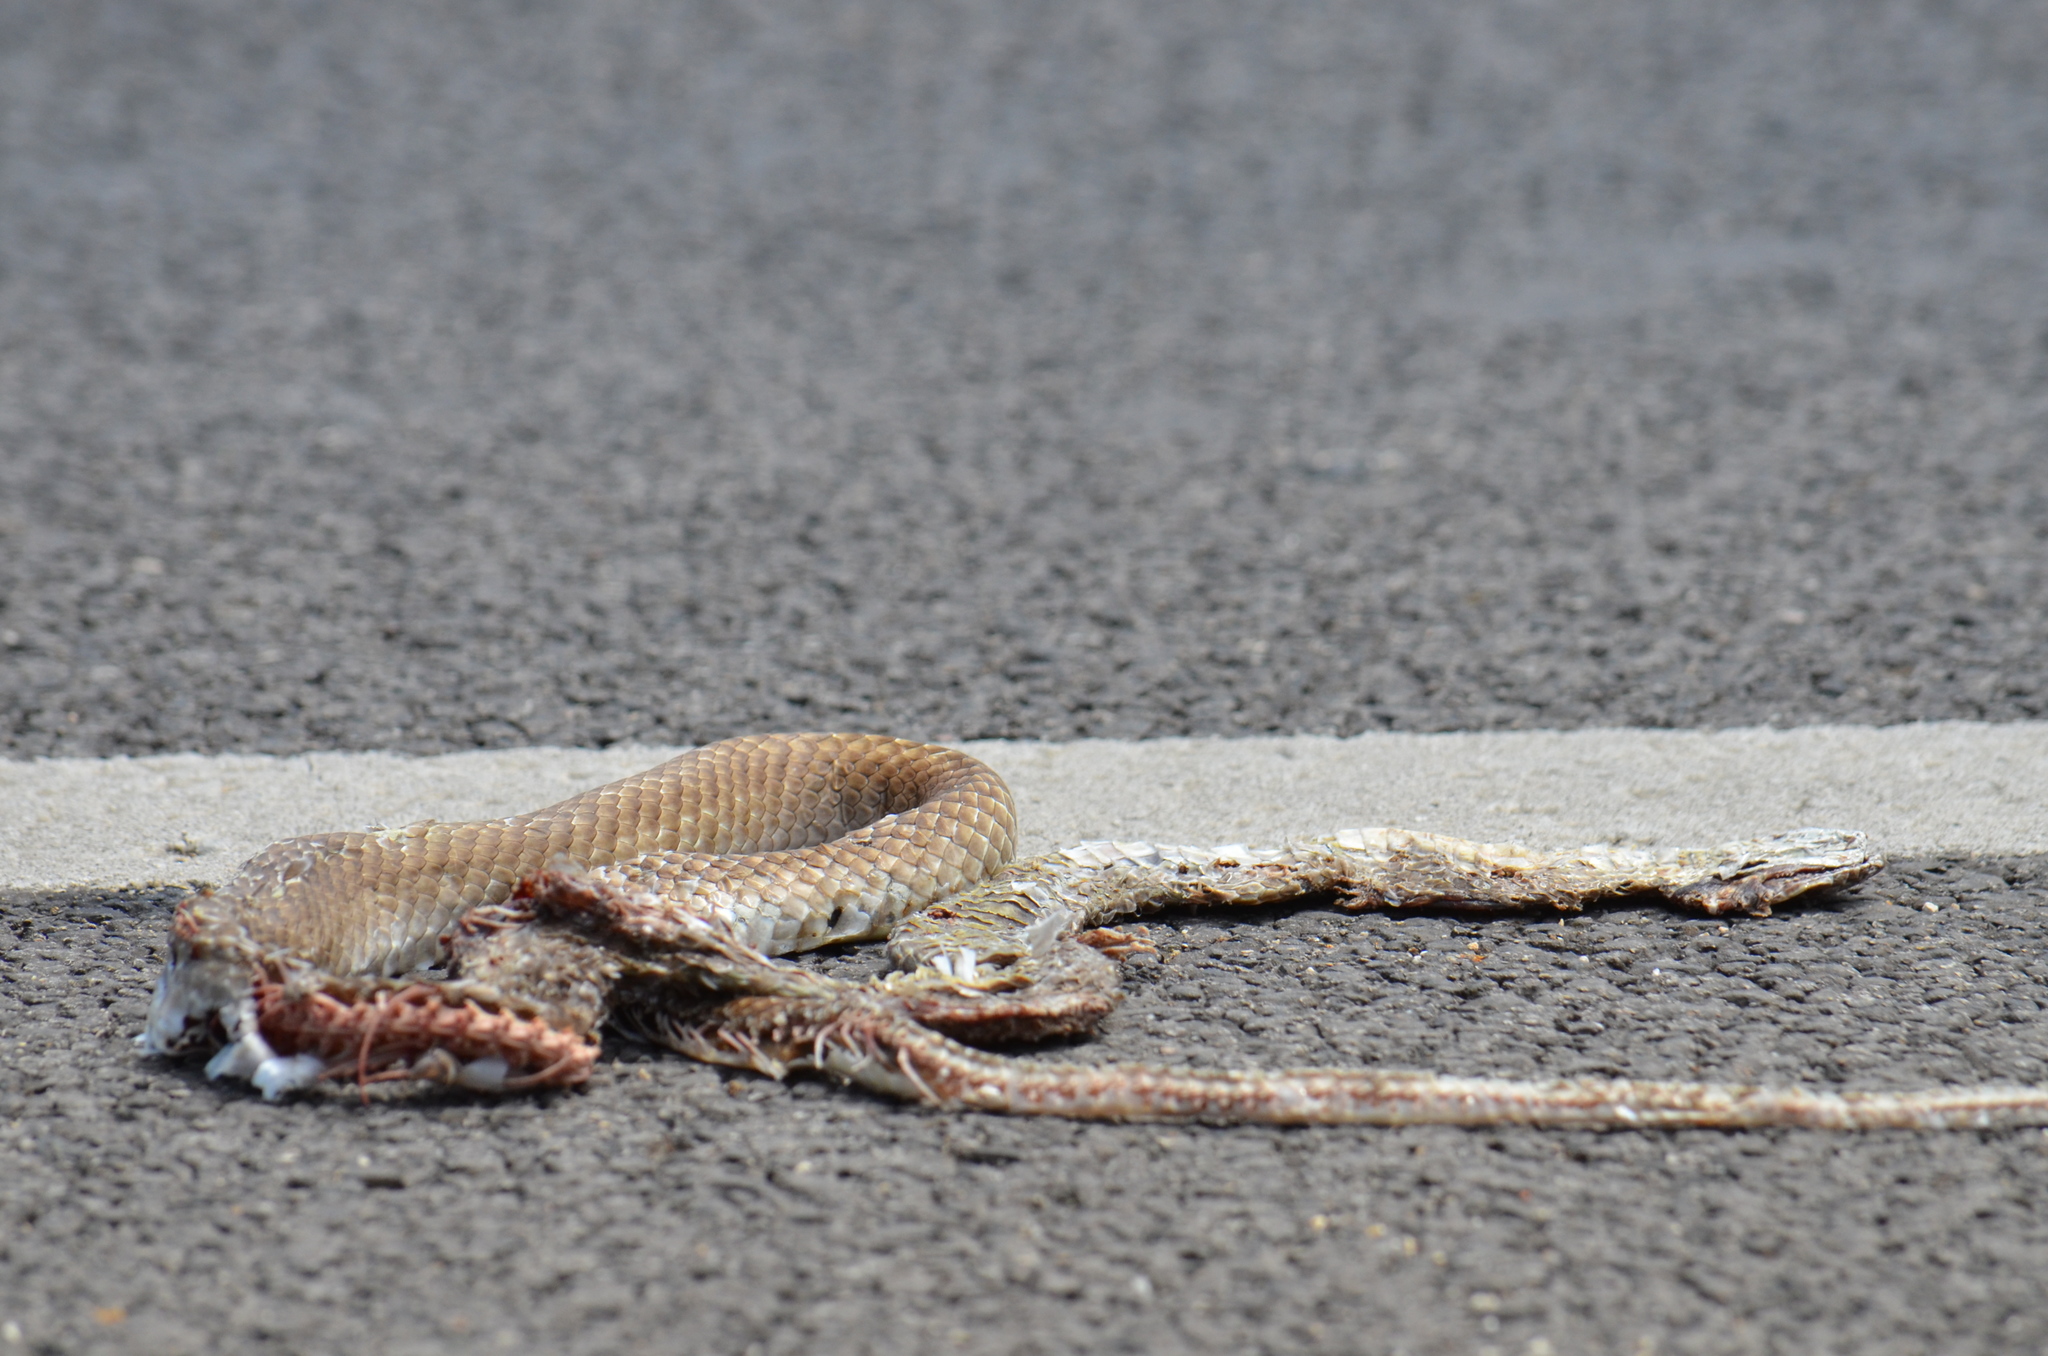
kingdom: Animalia
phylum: Chordata
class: Squamata
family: Colubridae
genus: Masticophis
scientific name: Masticophis flagellum
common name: Coachwhip
